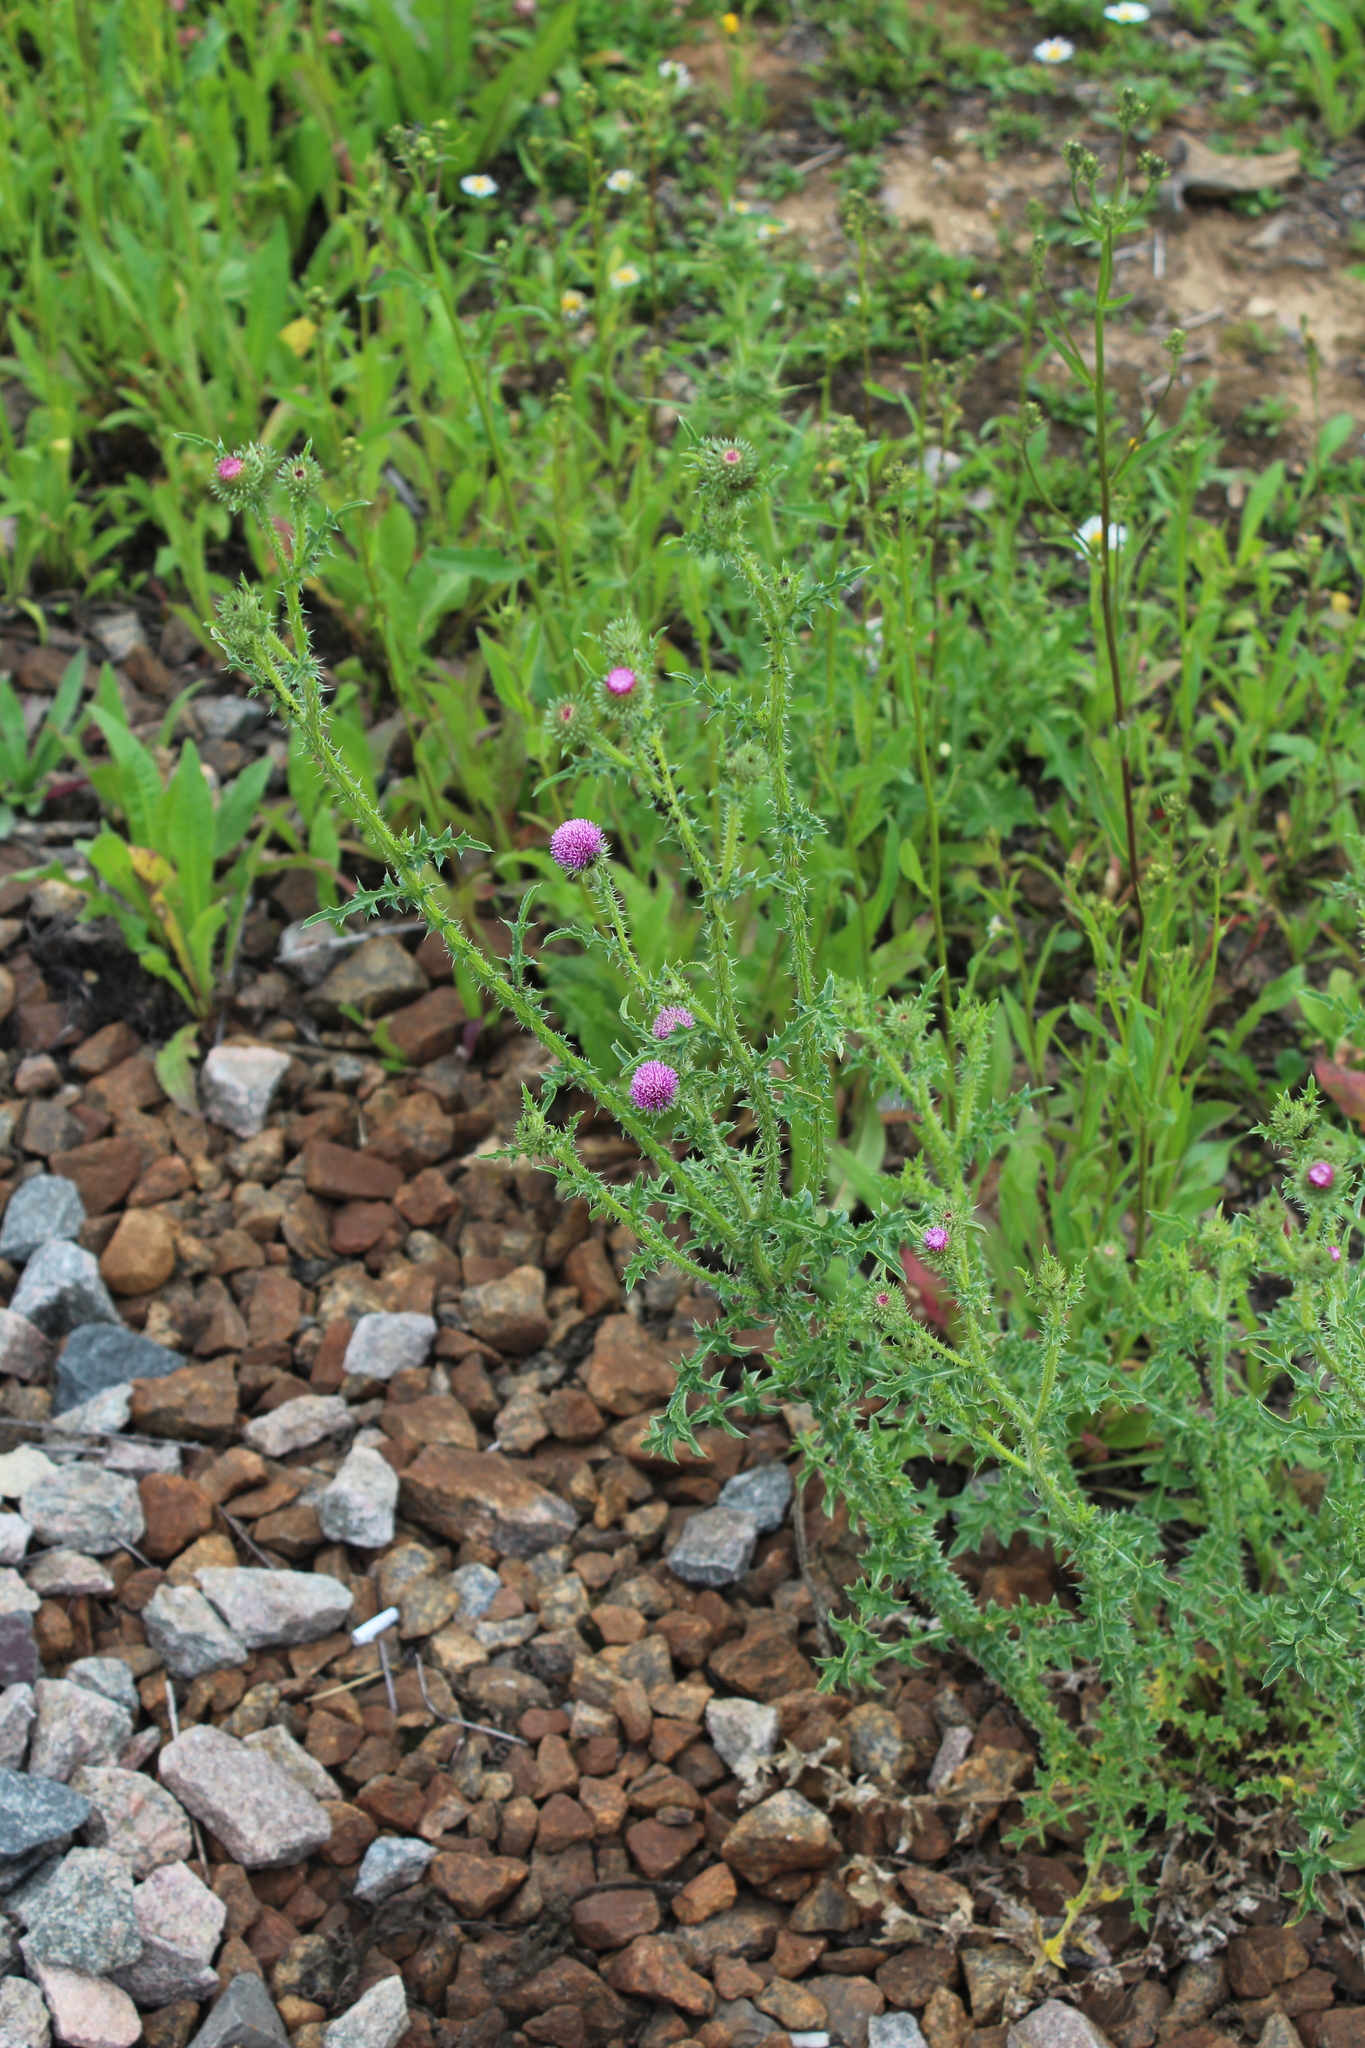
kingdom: Plantae
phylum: Tracheophyta
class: Magnoliopsida
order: Asterales
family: Asteraceae
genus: Carduus
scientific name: Carduus acanthoides
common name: Plumeless thistle
